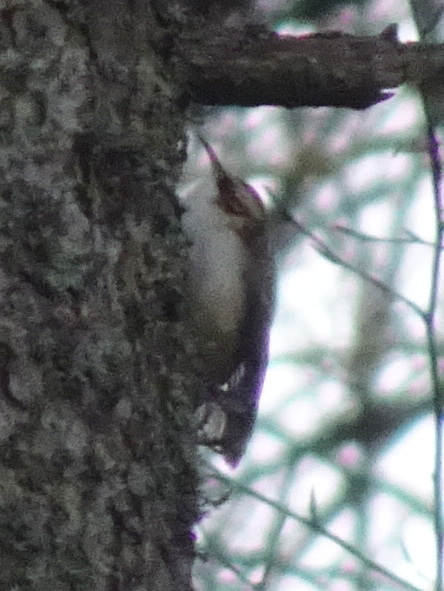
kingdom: Animalia
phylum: Chordata
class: Aves
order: Passeriformes
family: Certhiidae
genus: Certhia
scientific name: Certhia
